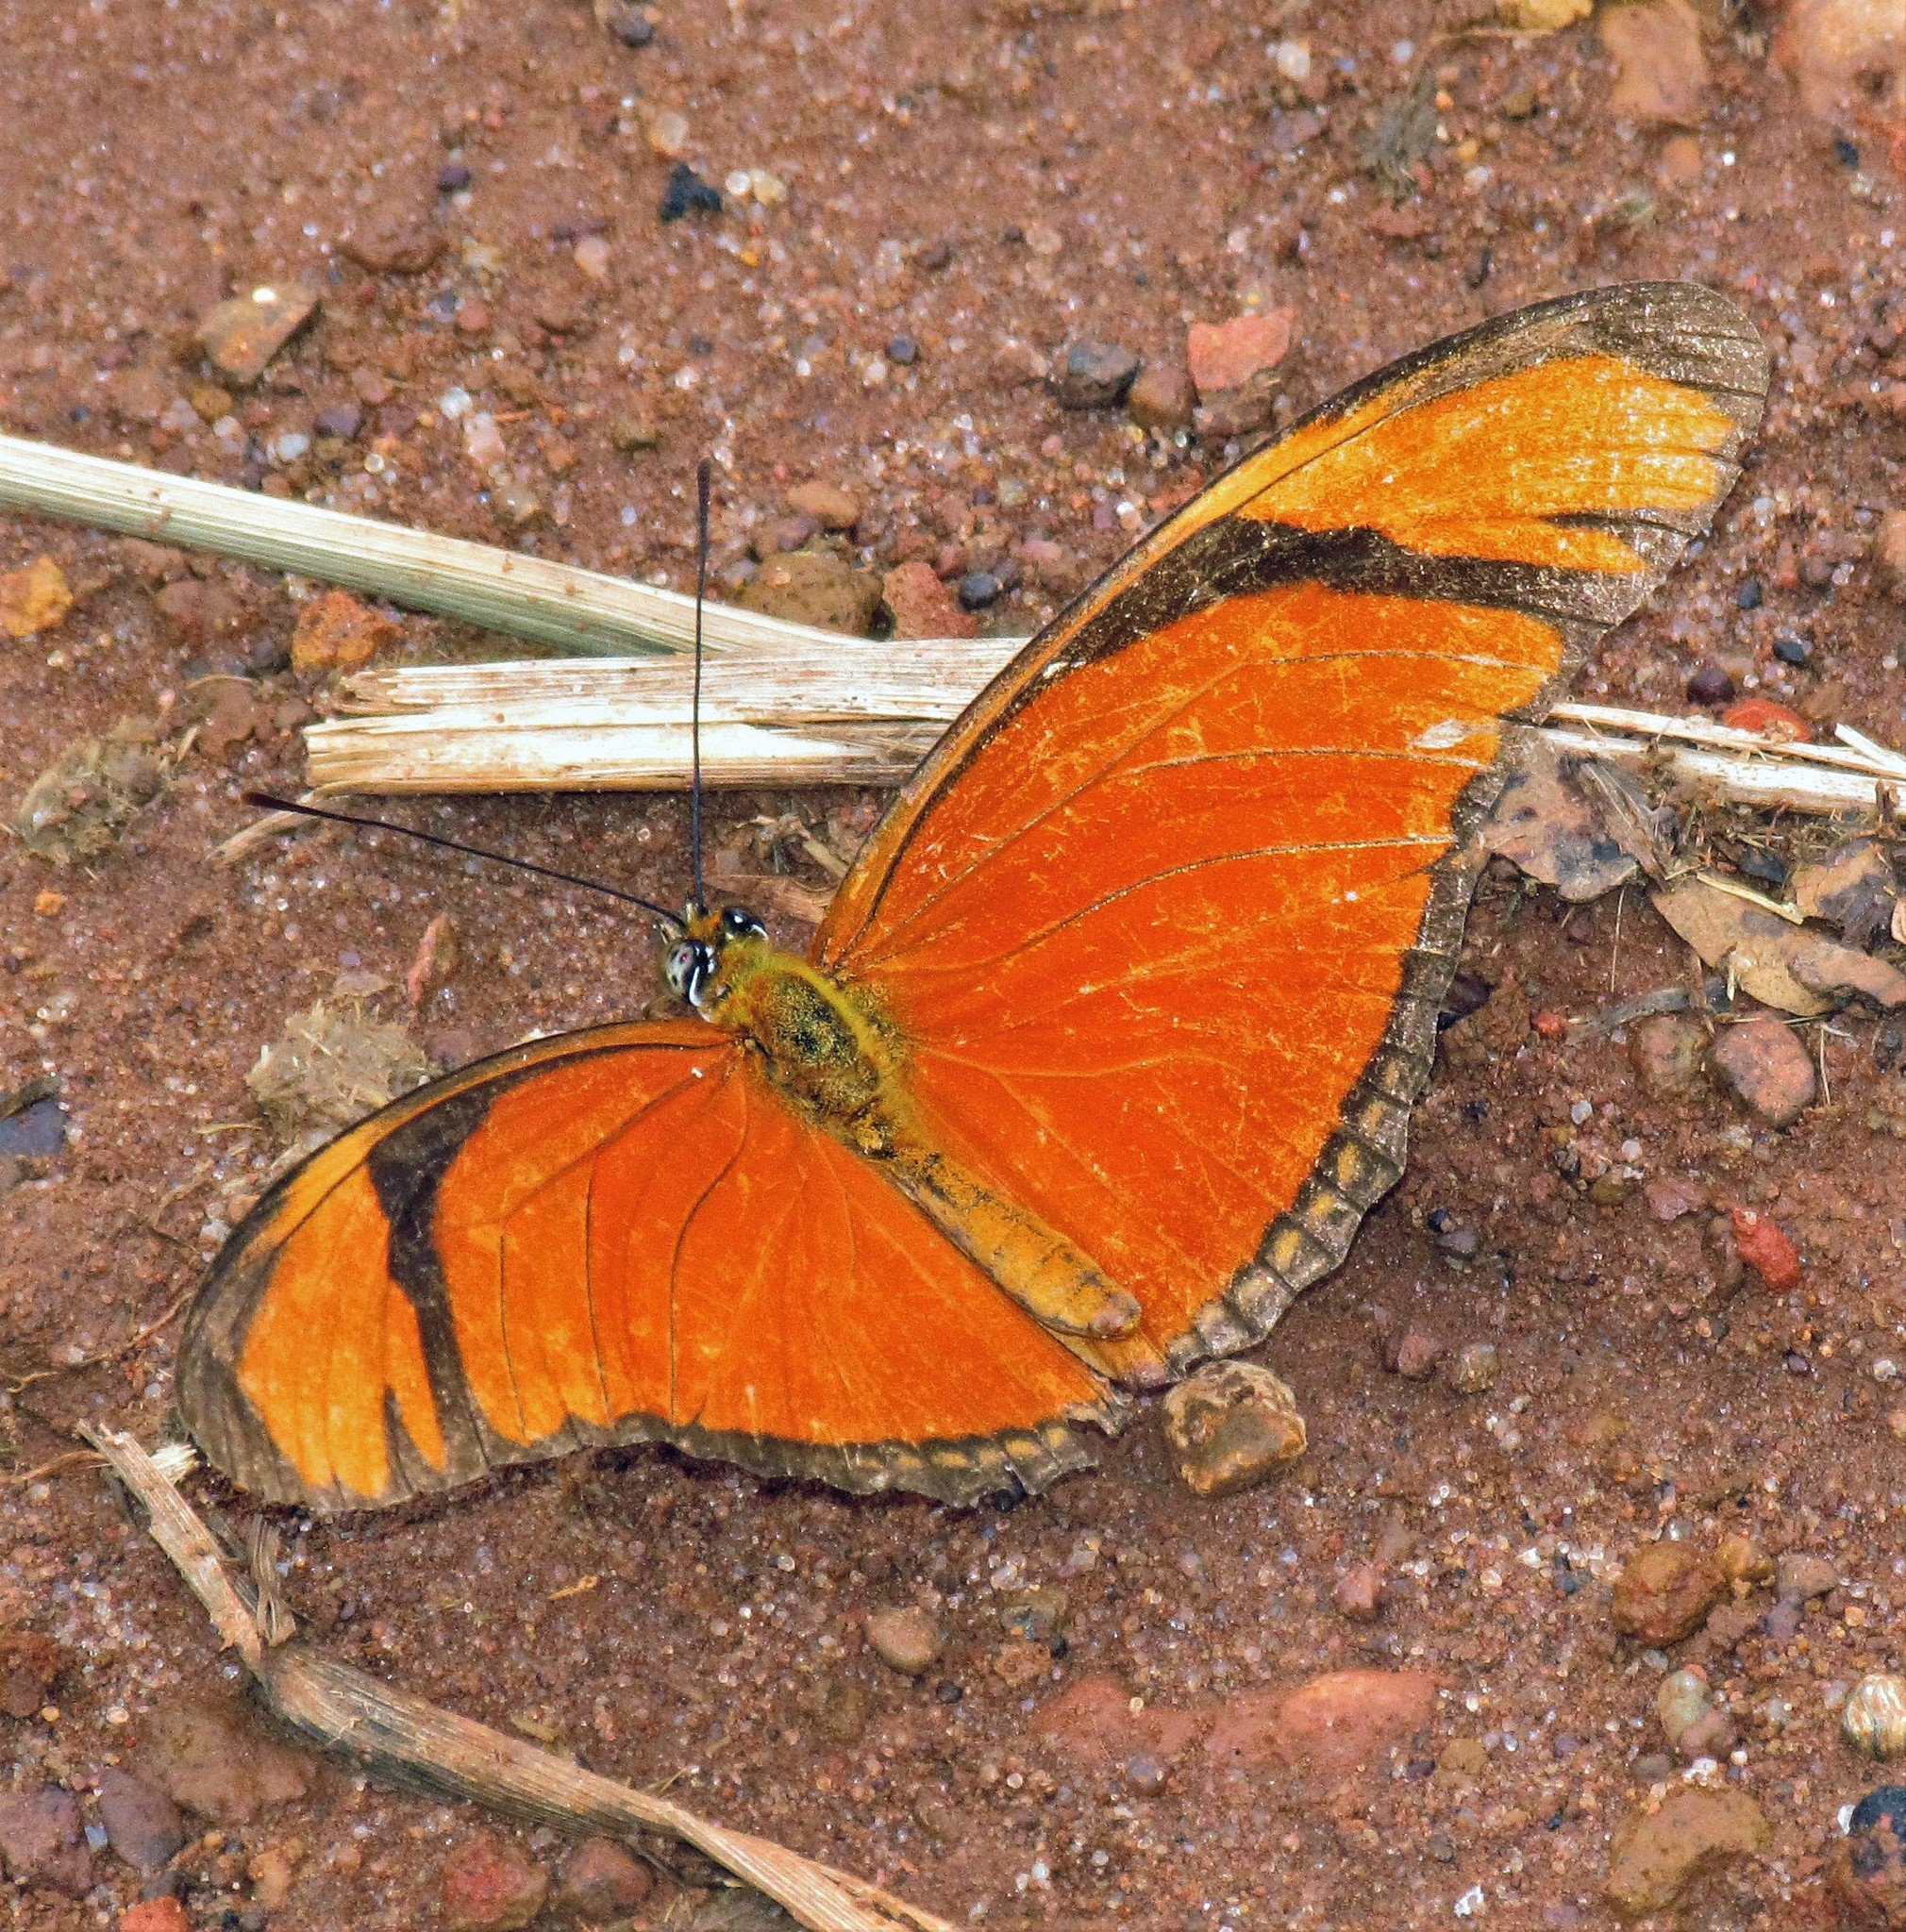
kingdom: Animalia
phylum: Arthropoda
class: Insecta
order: Lepidoptera
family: Nymphalidae
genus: Dryas
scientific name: Dryas iulia
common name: Flambeau
